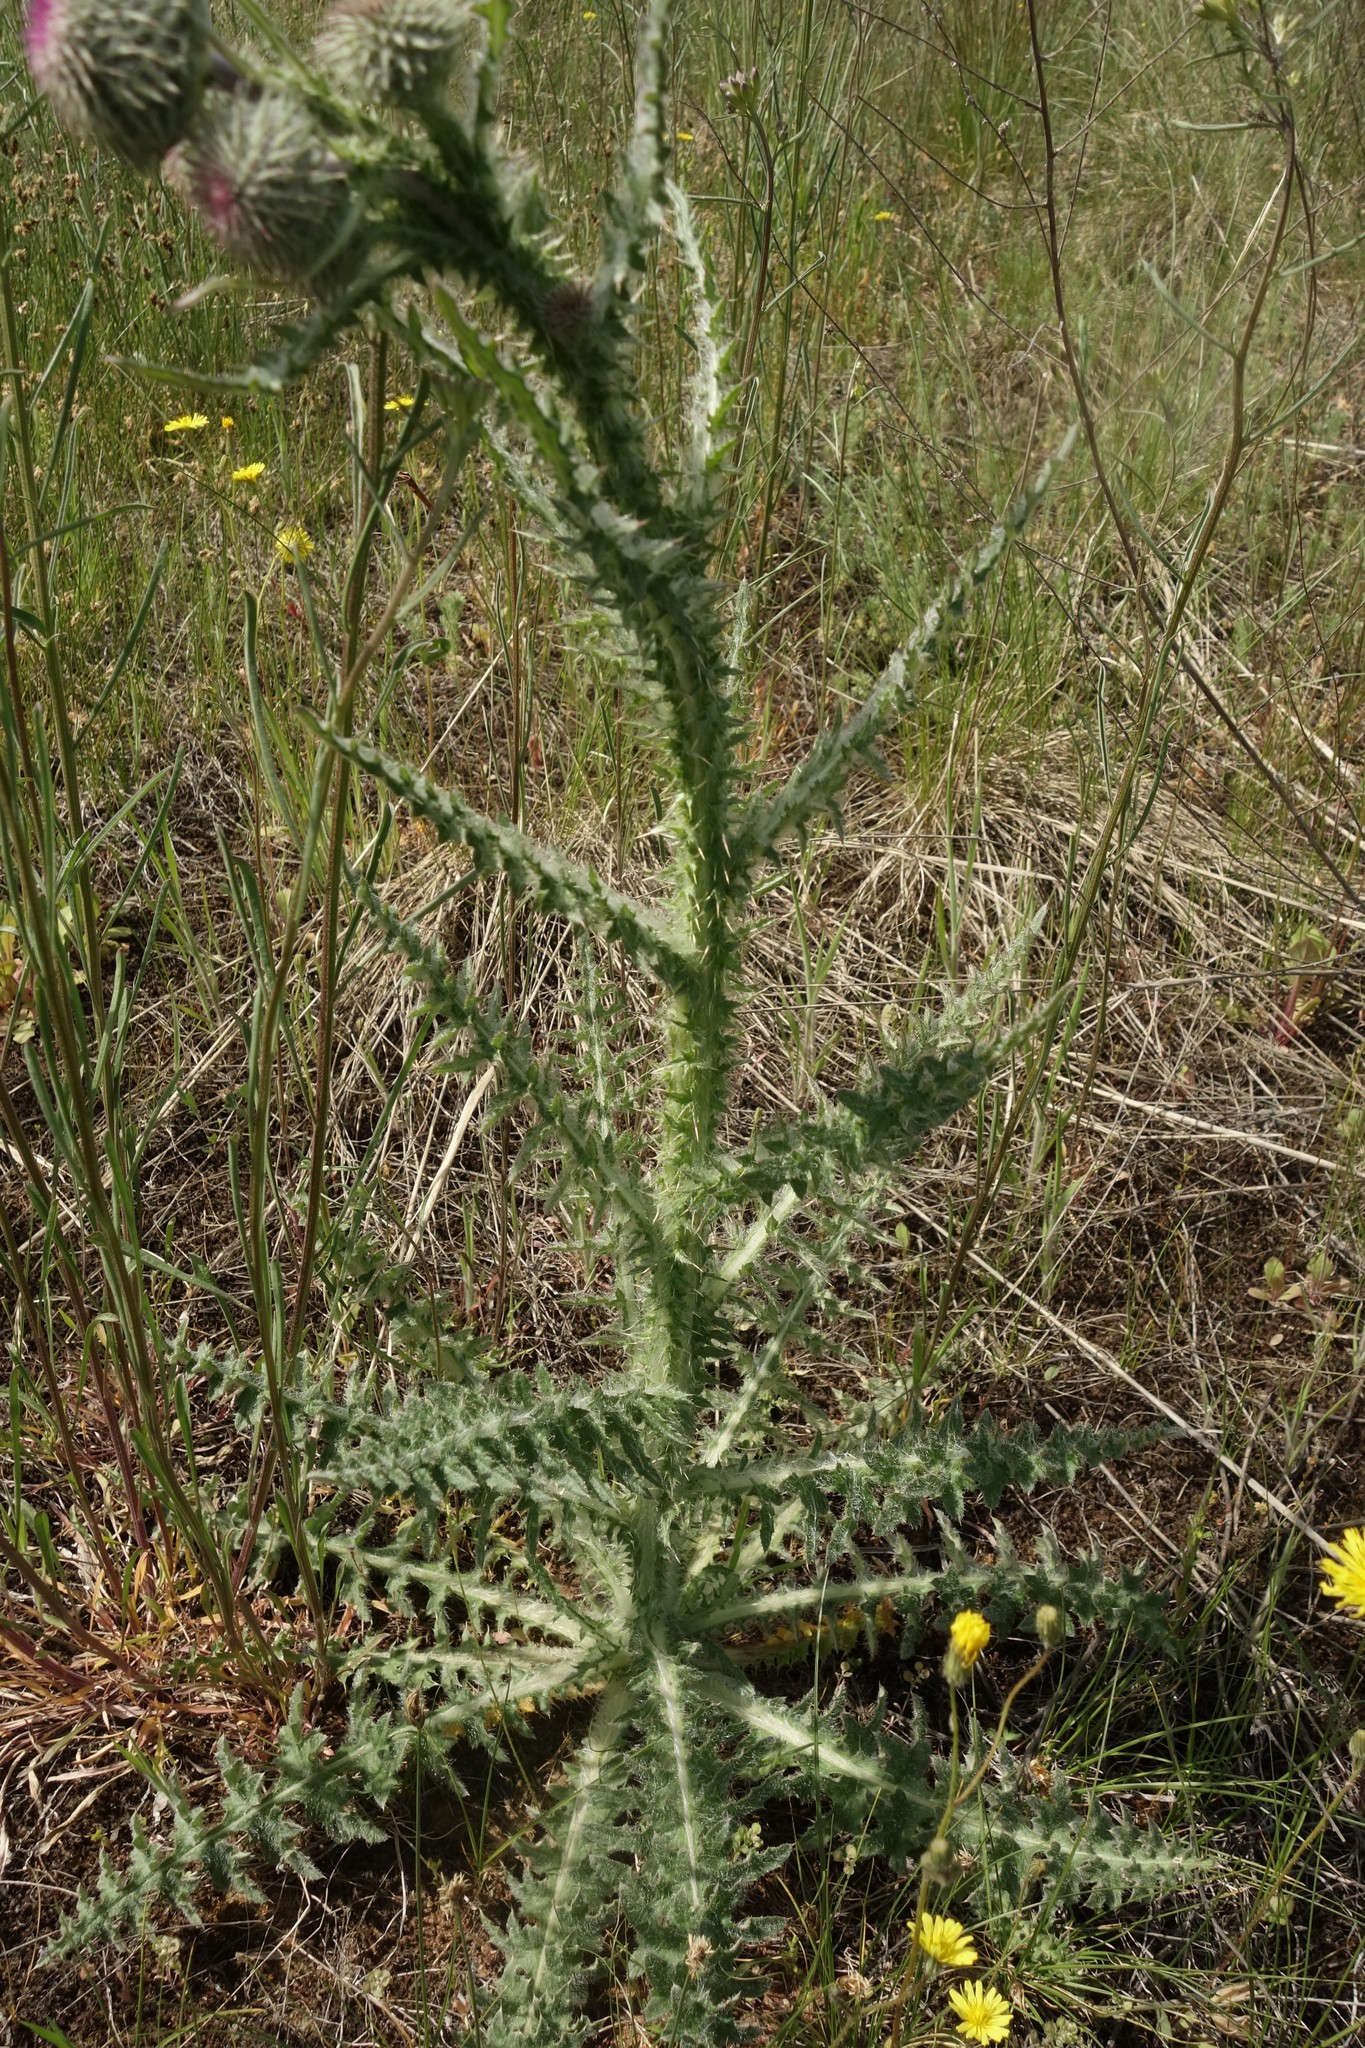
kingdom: Plantae
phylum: Tracheophyta
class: Magnoliopsida
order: Asterales
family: Asteraceae
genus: Carduus
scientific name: Carduus uncinatus
